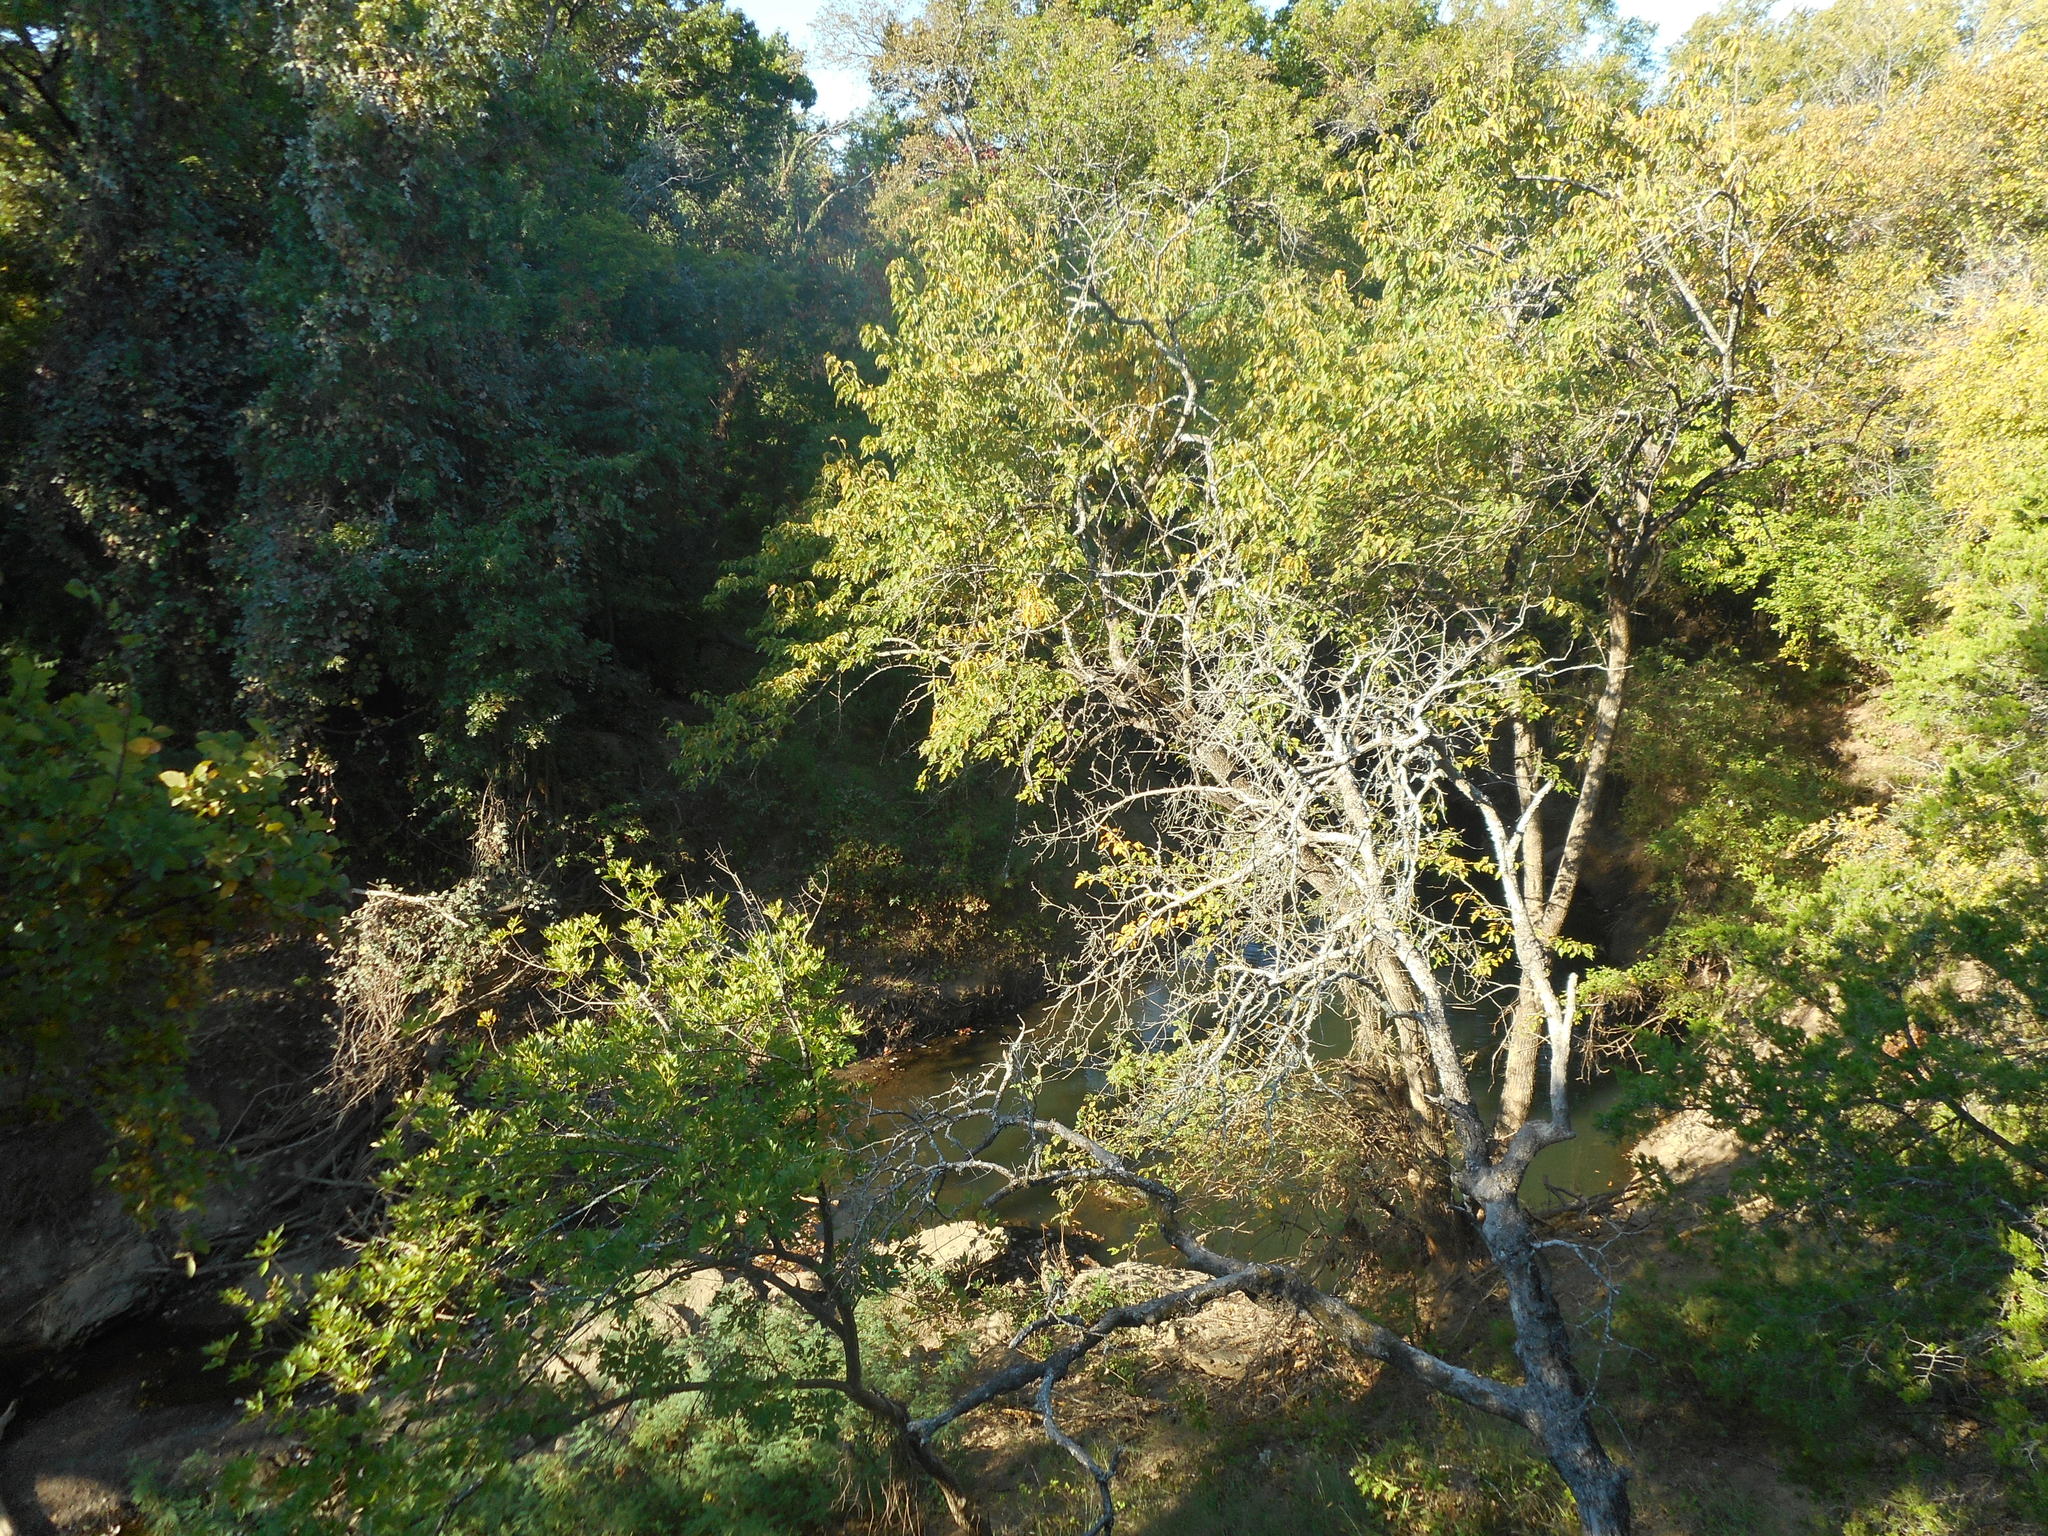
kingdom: Plantae
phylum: Tracheophyta
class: Magnoliopsida
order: Rosales
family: Ulmaceae
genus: Ulmus
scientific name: Ulmus crassifolia
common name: Basket elm
